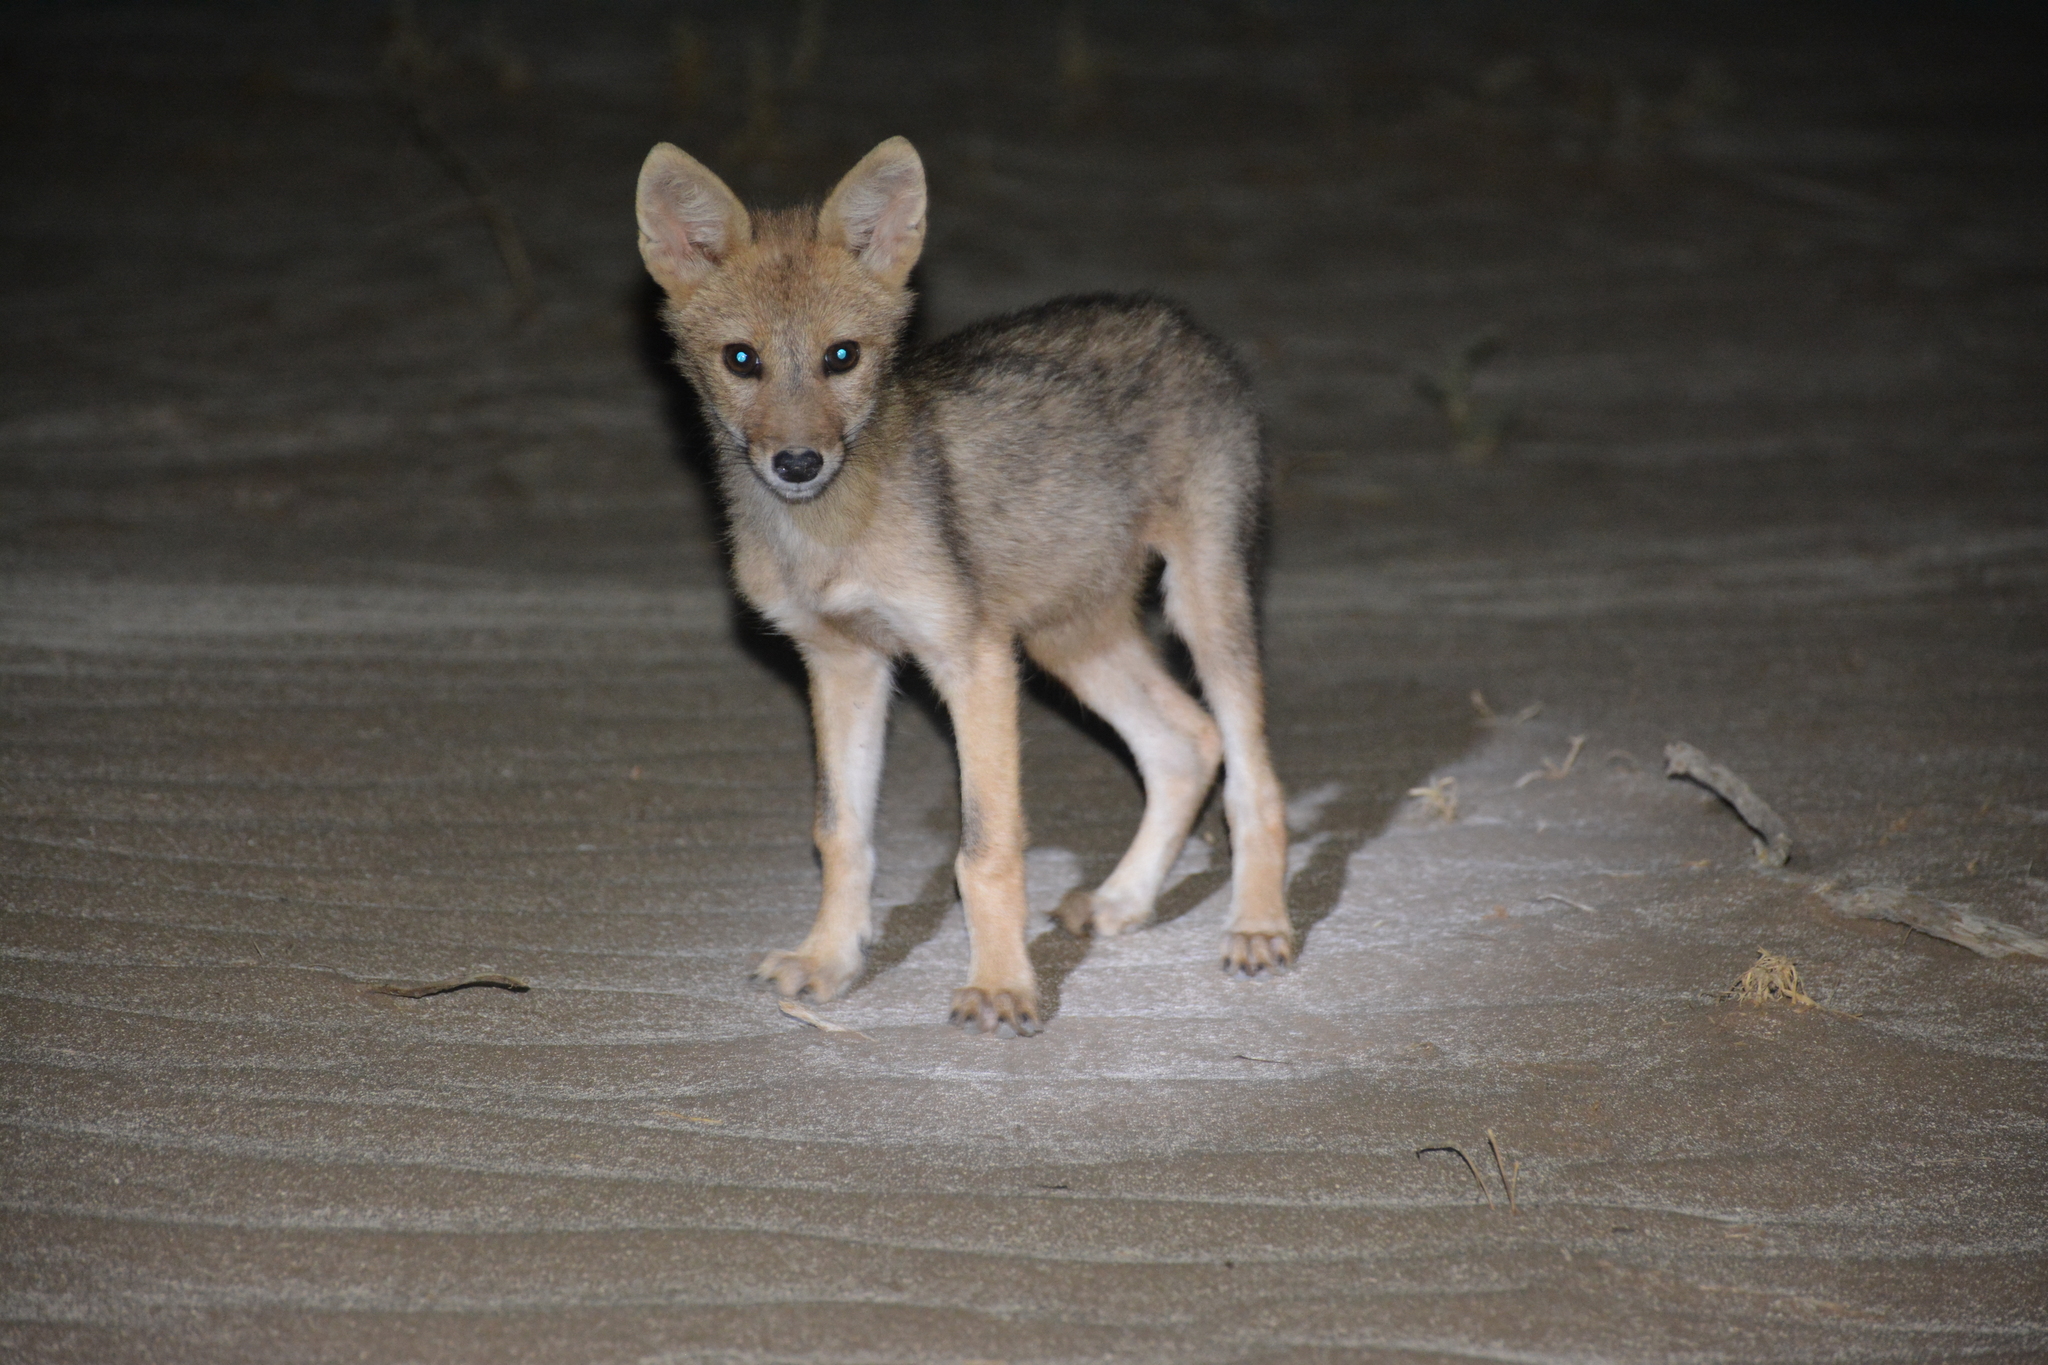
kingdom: Animalia
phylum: Chordata
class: Mammalia
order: Carnivora
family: Canidae
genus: Canis
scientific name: Canis aureus
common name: Golden jackal
